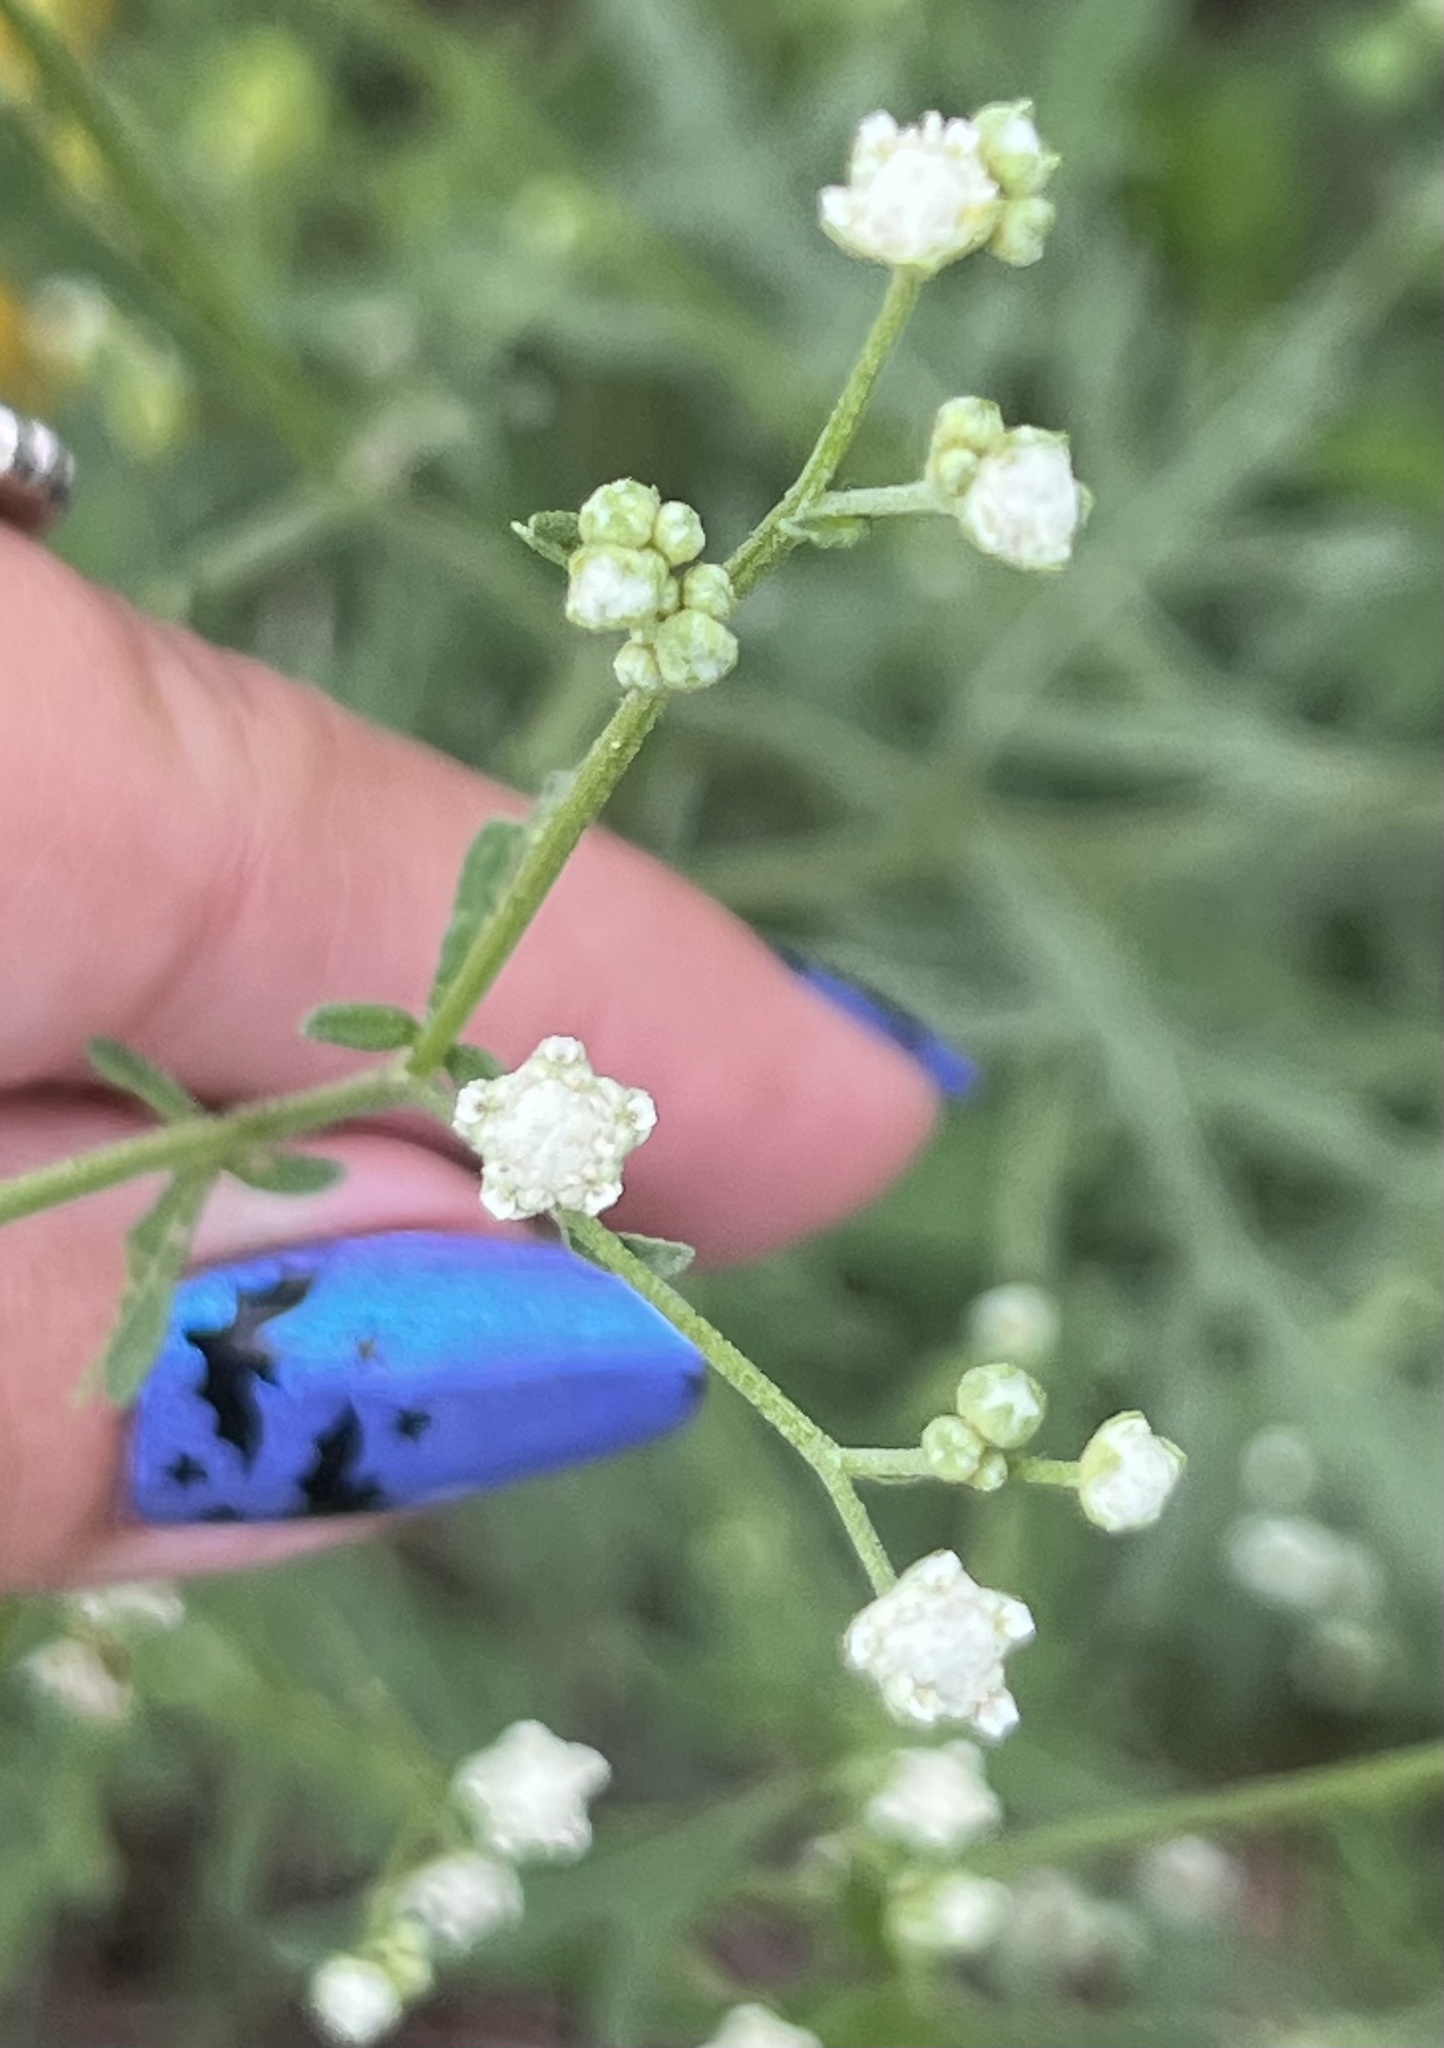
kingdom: Plantae
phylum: Tracheophyta
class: Magnoliopsida
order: Asterales
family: Asteraceae
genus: Parthenium
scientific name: Parthenium hysterophorus
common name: Santa maria feverfew
